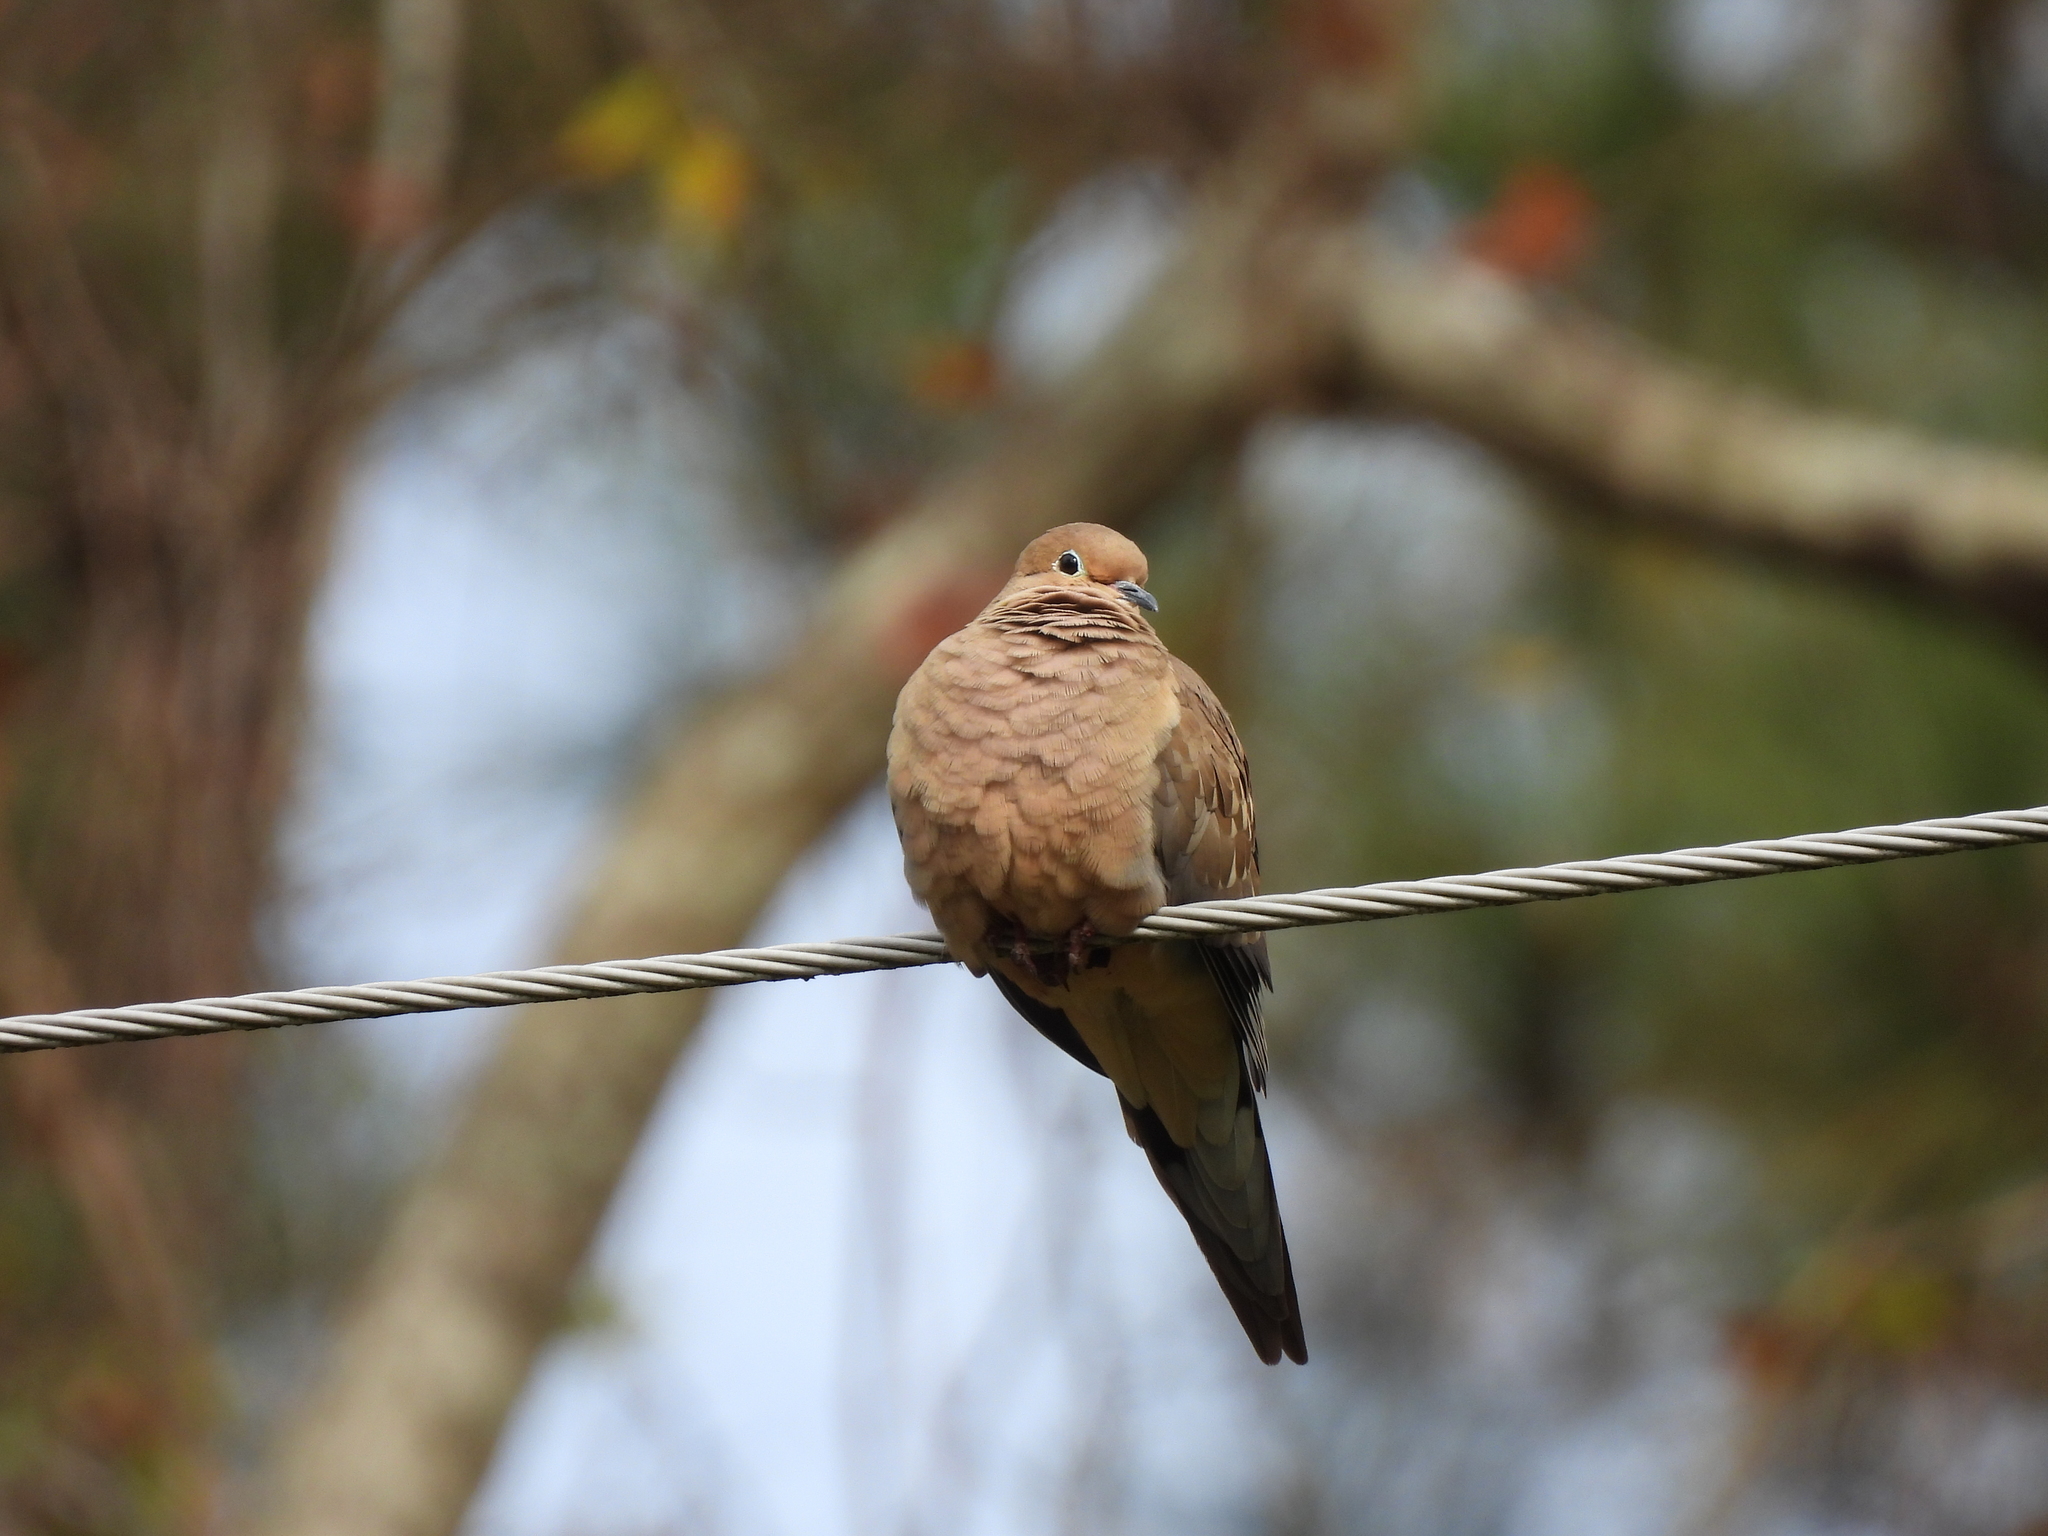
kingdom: Animalia
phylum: Chordata
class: Aves
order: Columbiformes
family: Columbidae
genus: Zenaida
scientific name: Zenaida macroura
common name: Mourning dove
